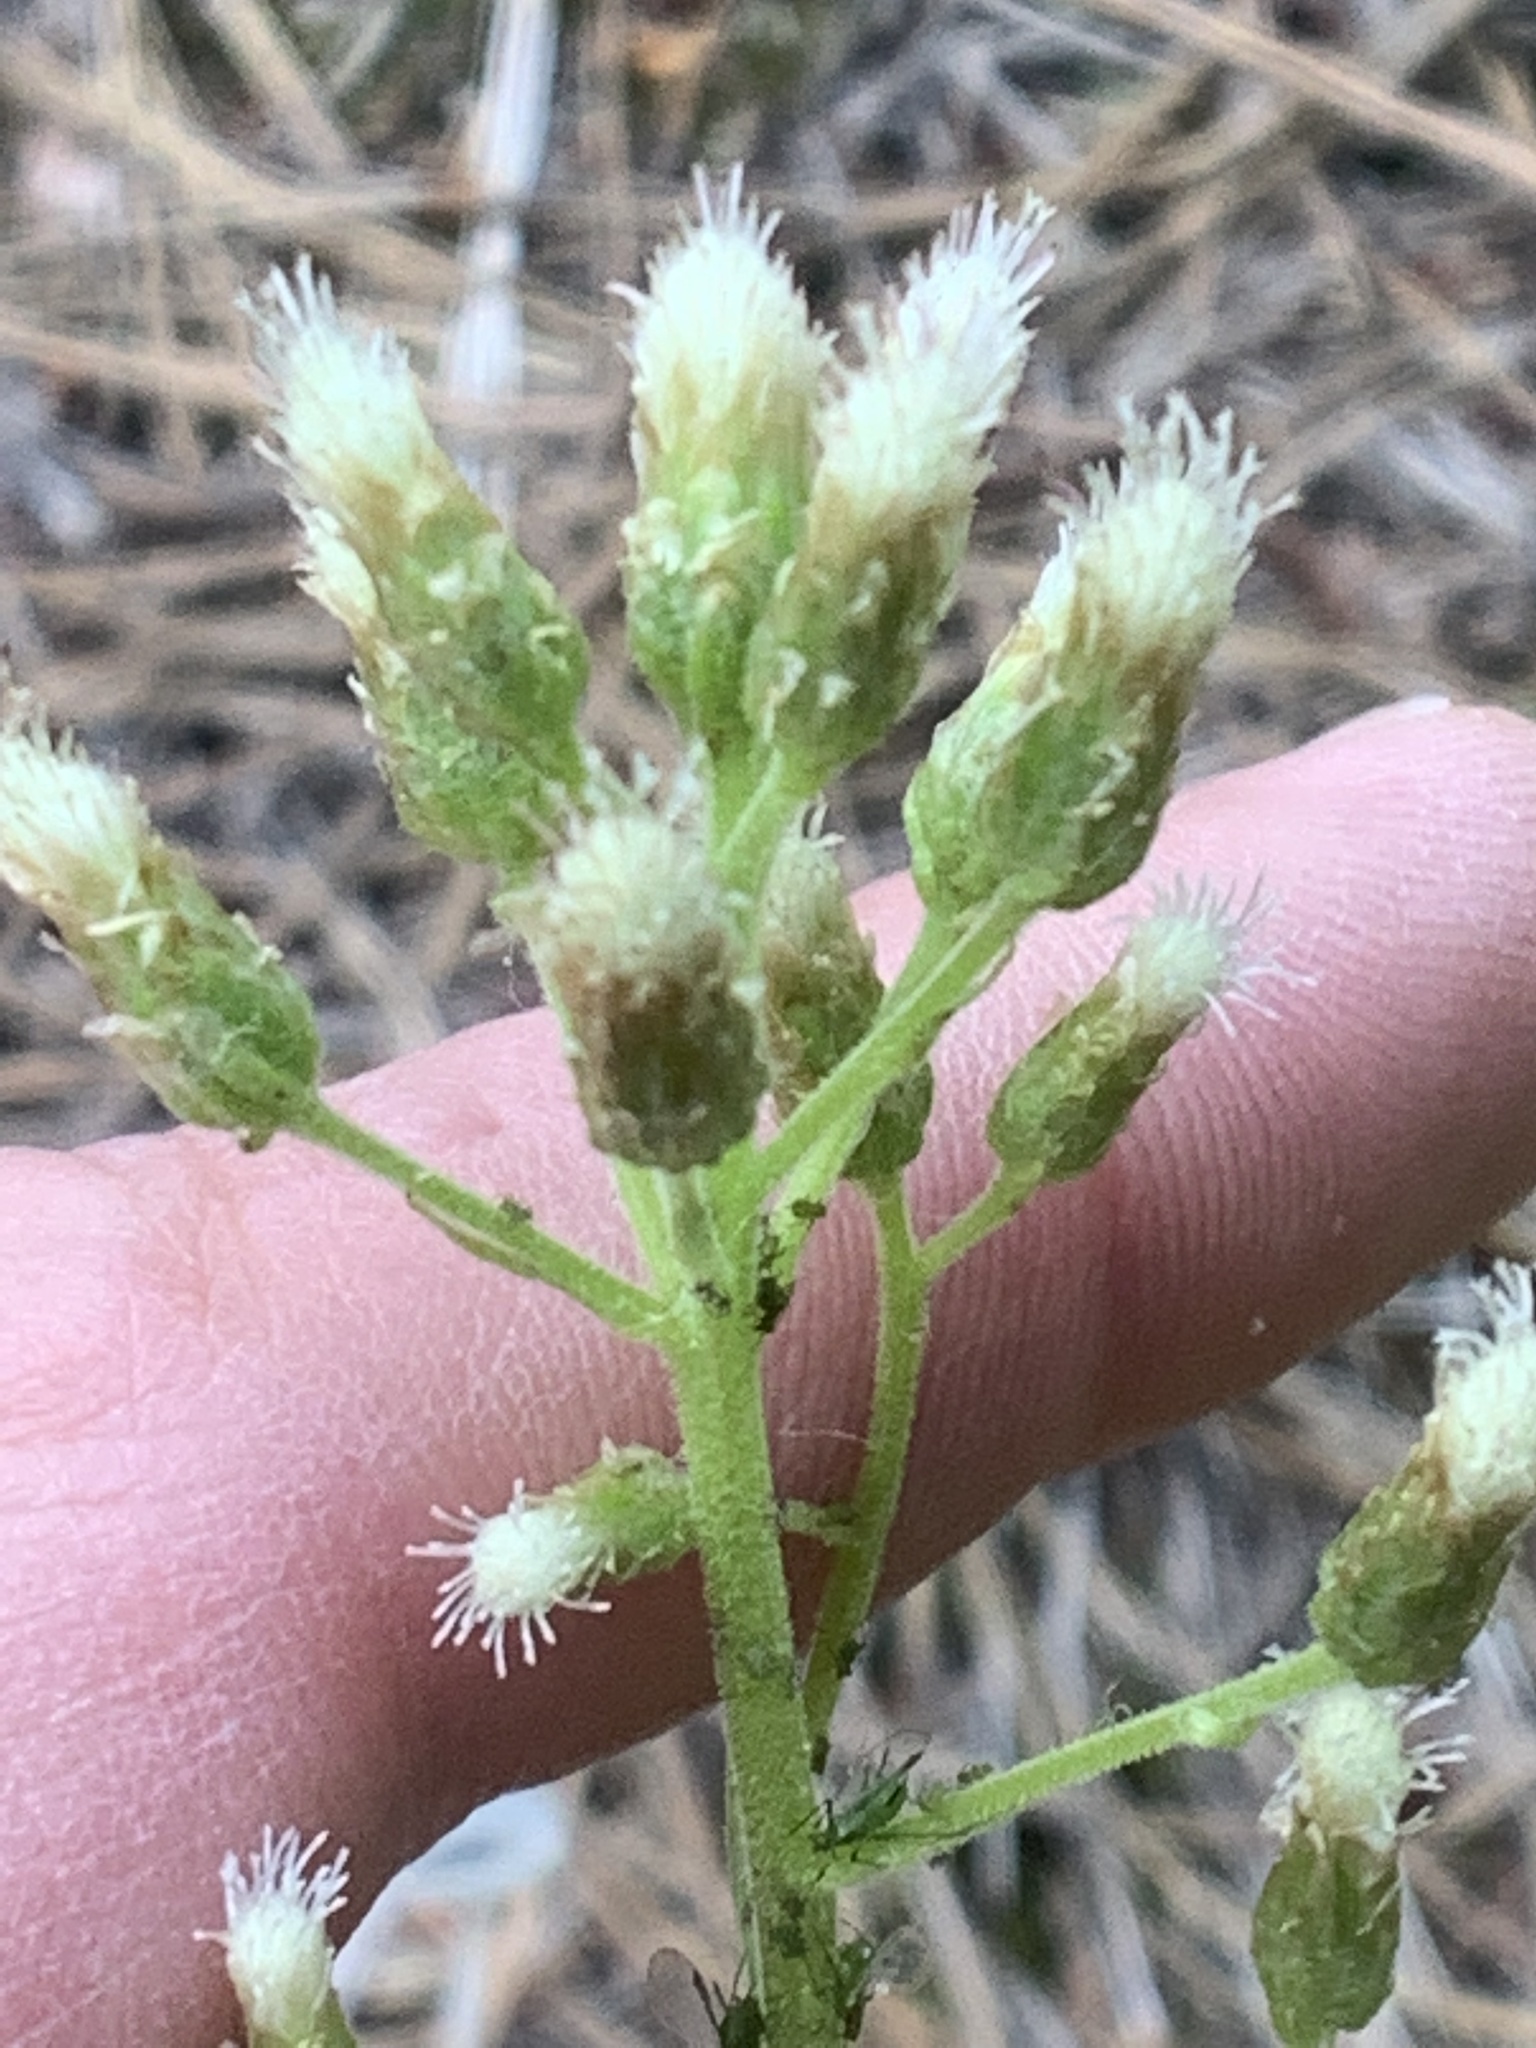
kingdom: Plantae
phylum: Tracheophyta
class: Magnoliopsida
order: Asterales
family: Asteraceae
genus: Antennaria
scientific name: Antennaria racemosa
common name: Racemose pussytoes
